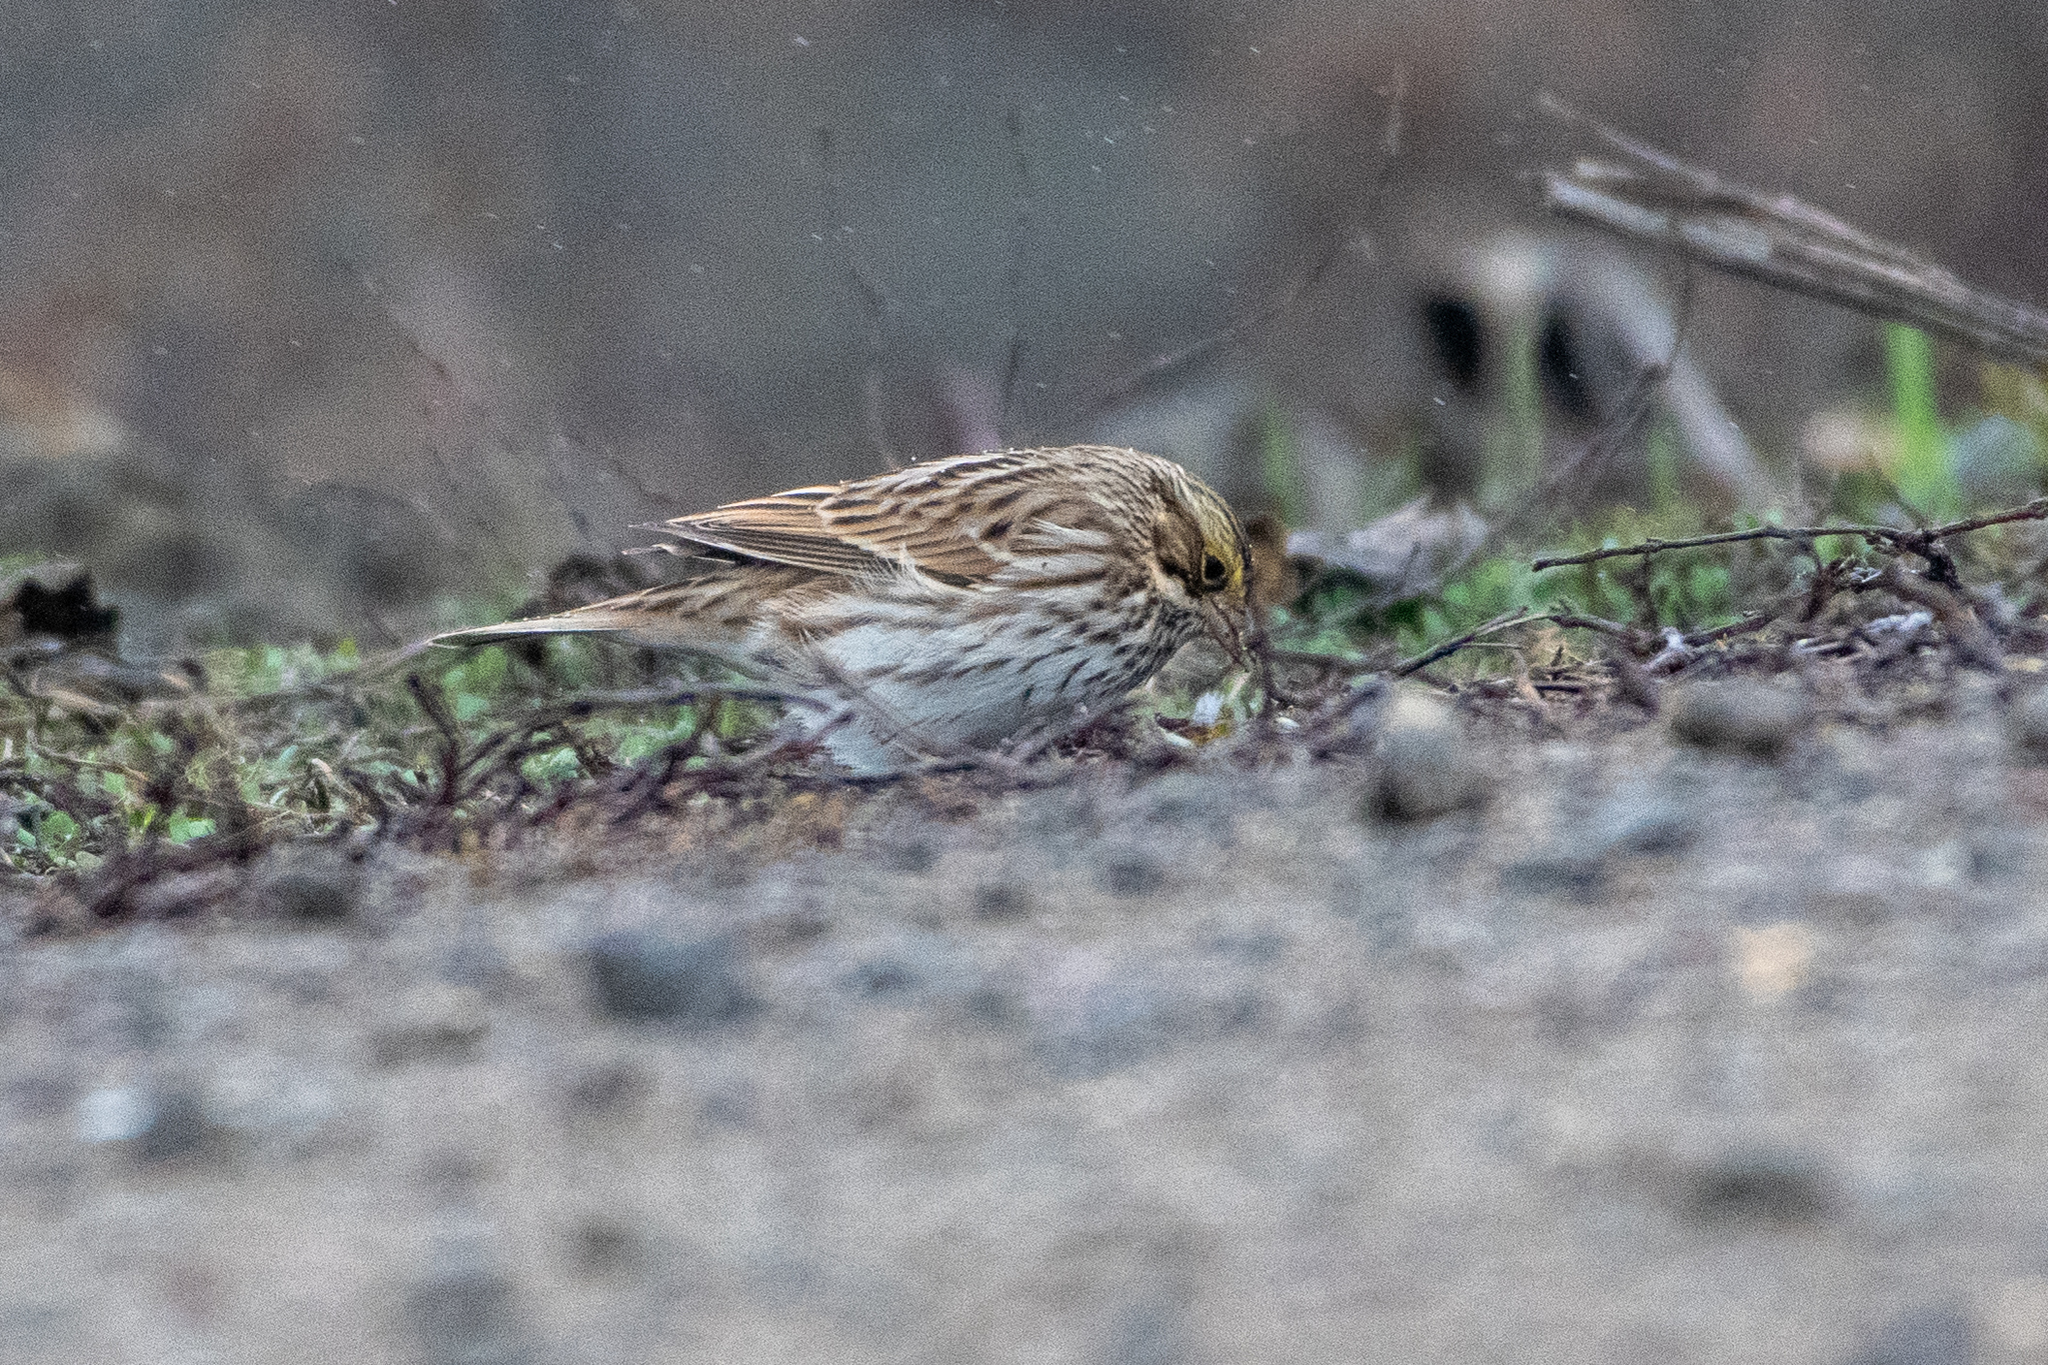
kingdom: Animalia
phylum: Chordata
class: Aves
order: Passeriformes
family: Passerellidae
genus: Passerculus
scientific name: Passerculus sandwichensis
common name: Savannah sparrow
